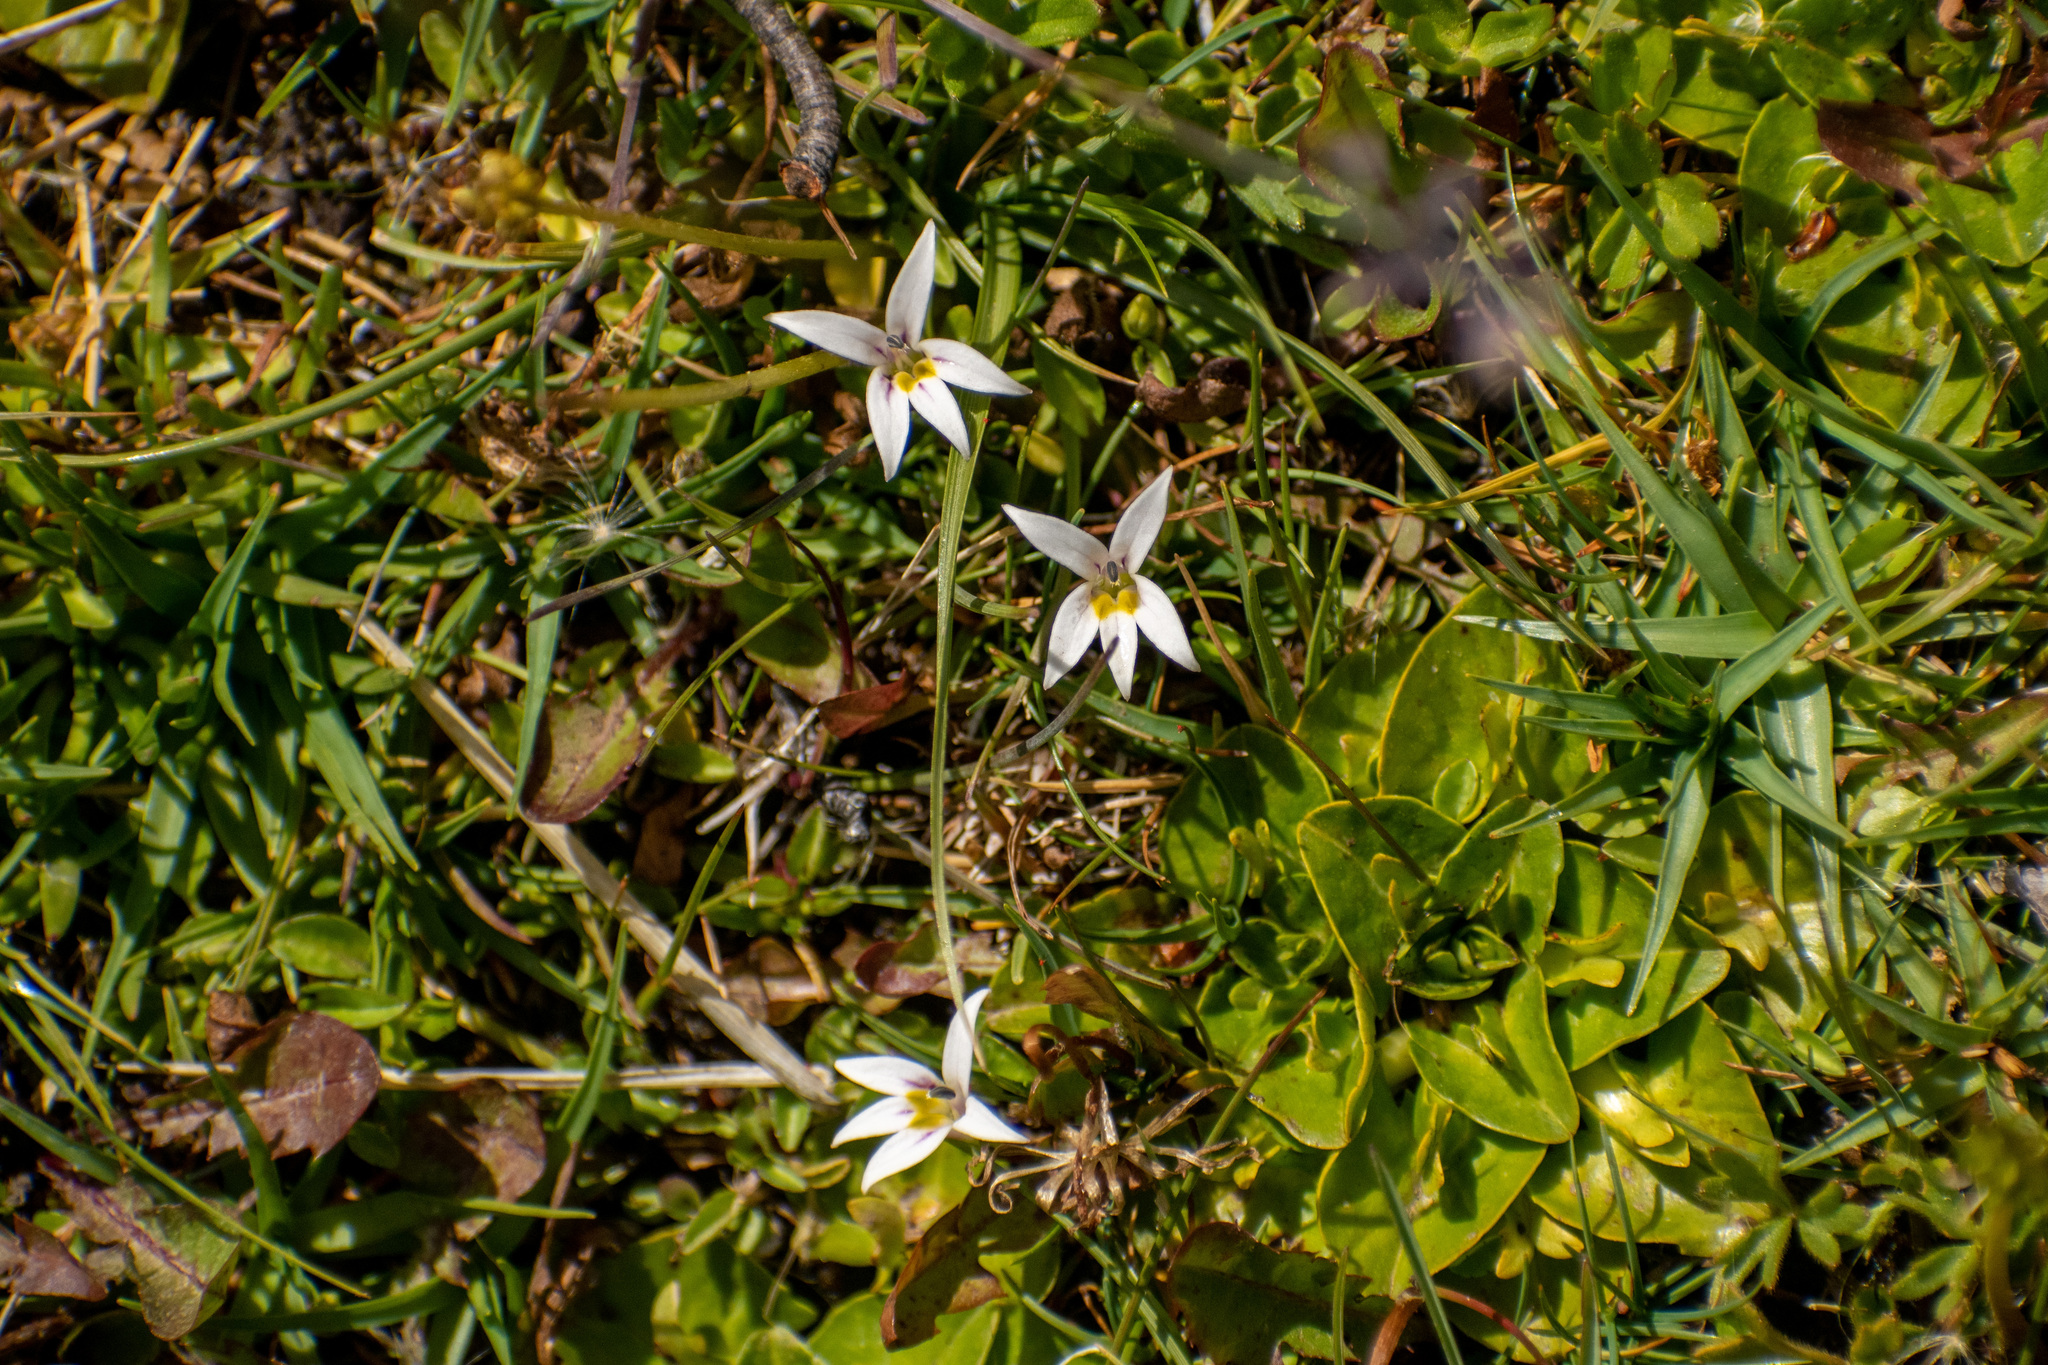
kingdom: Plantae
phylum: Tracheophyta
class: Magnoliopsida
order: Asterales
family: Campanulaceae
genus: Lobelia
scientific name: Lobelia oligophylla
